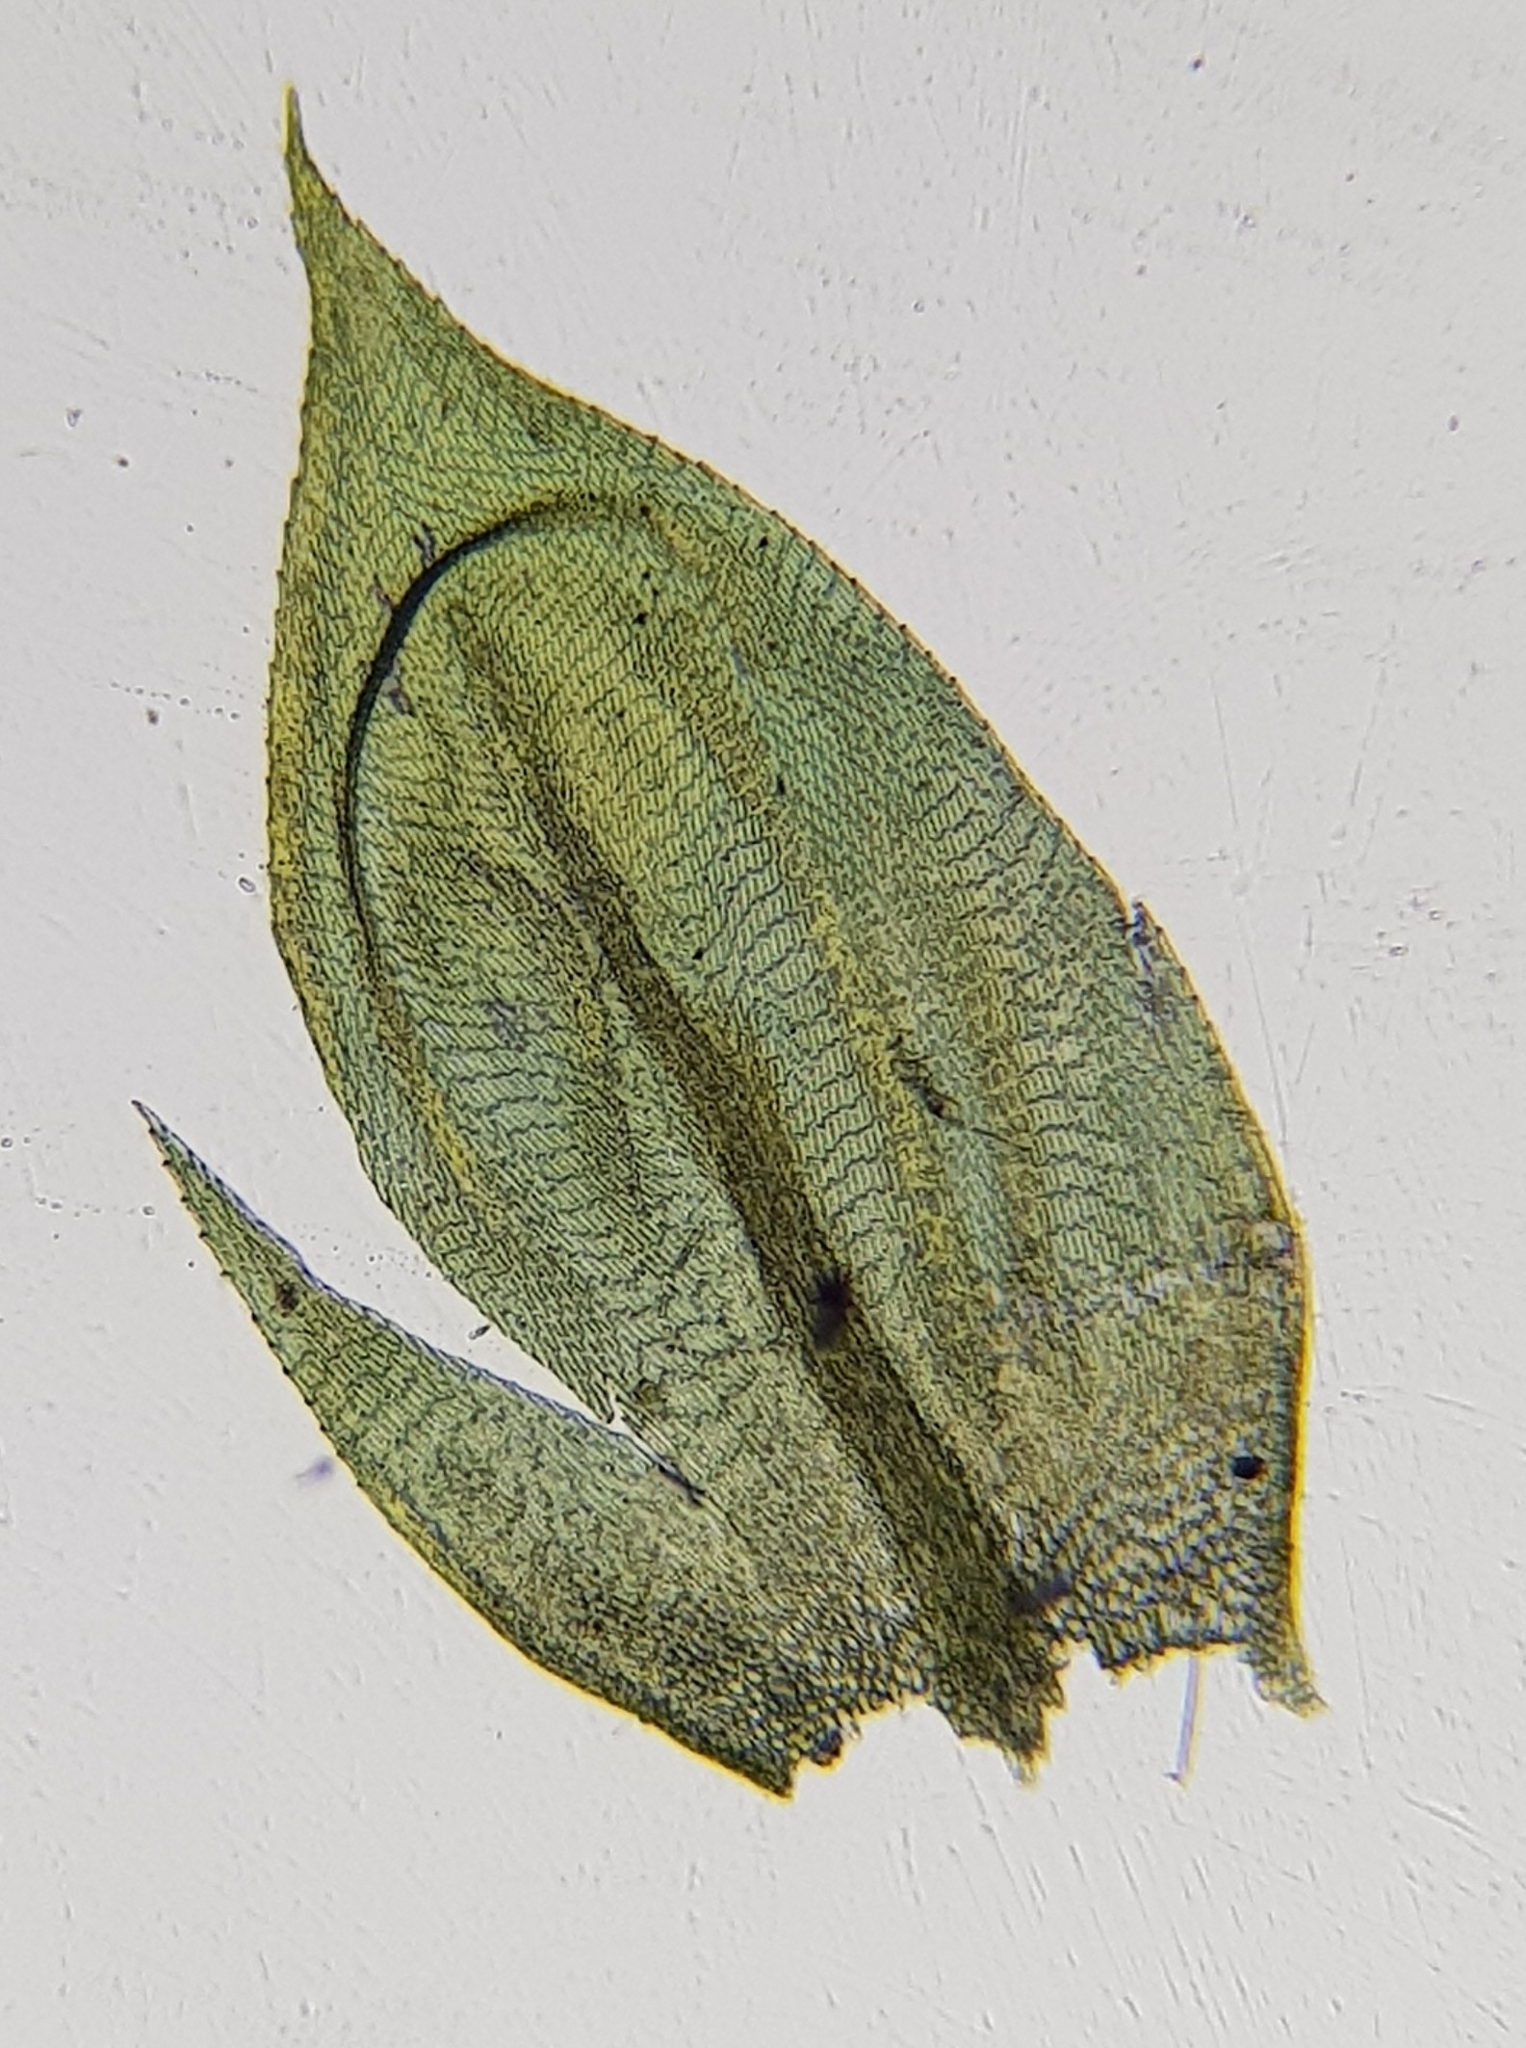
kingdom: Plantae
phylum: Bryophyta
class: Bryopsida
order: Hypnales
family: Brachytheciaceae
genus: Cirriphyllum
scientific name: Cirriphyllum crassinervium
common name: Beech feather-moss
